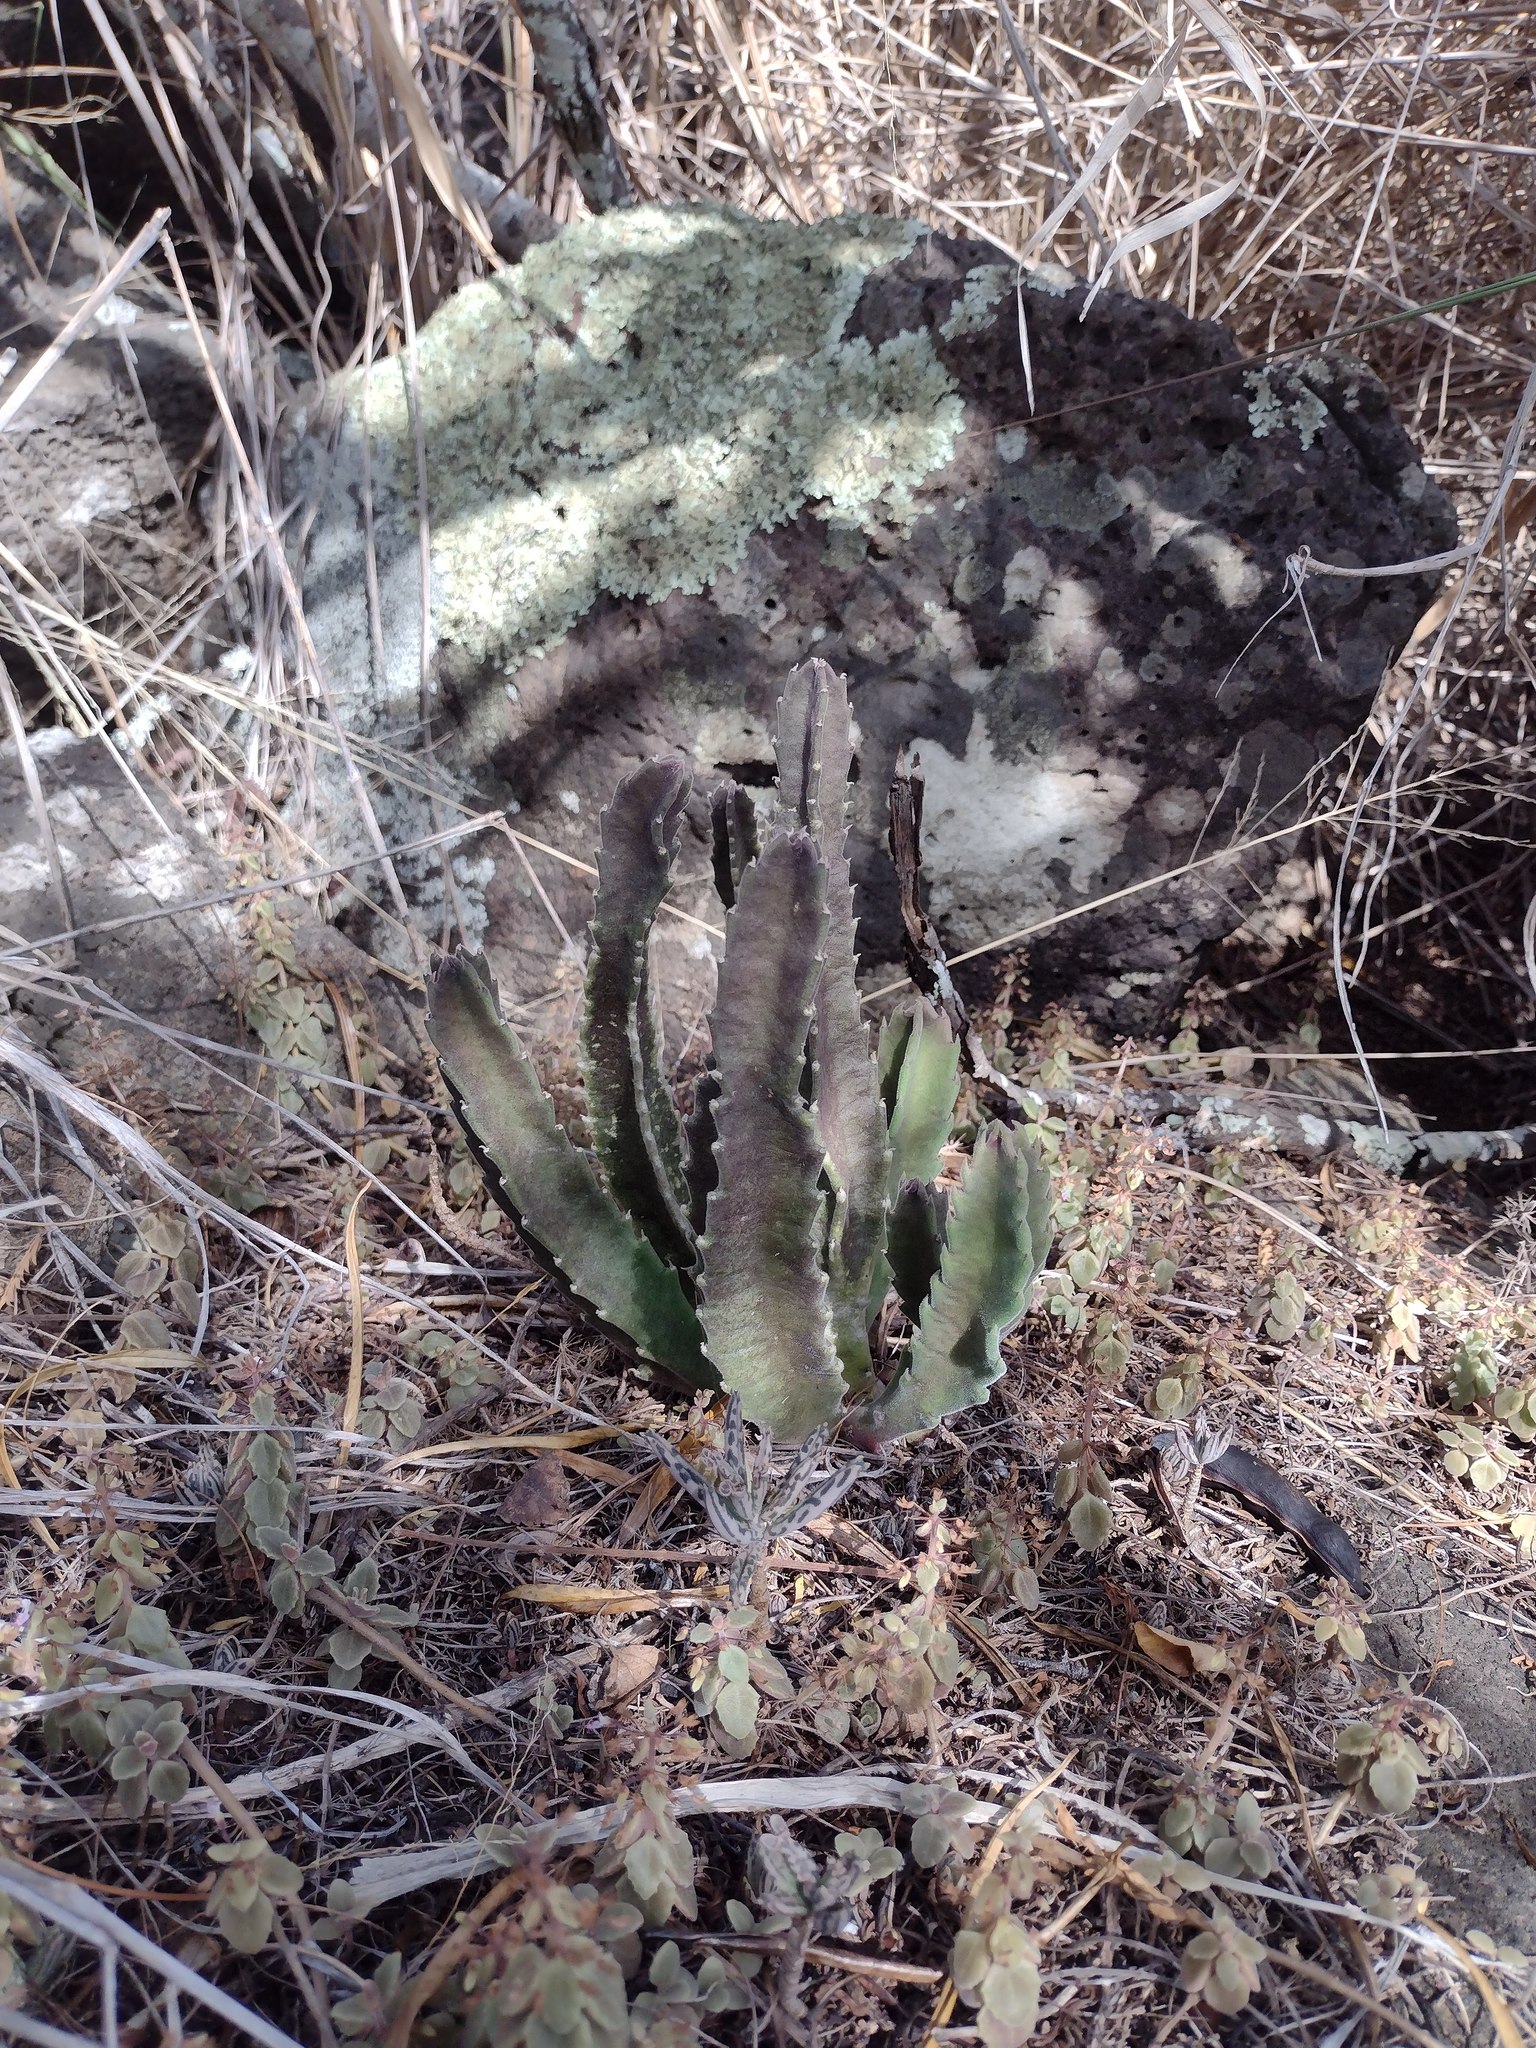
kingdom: Plantae
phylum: Tracheophyta
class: Magnoliopsida
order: Gentianales
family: Apocynaceae
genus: Ceropegia
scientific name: Ceropegia gigantea
